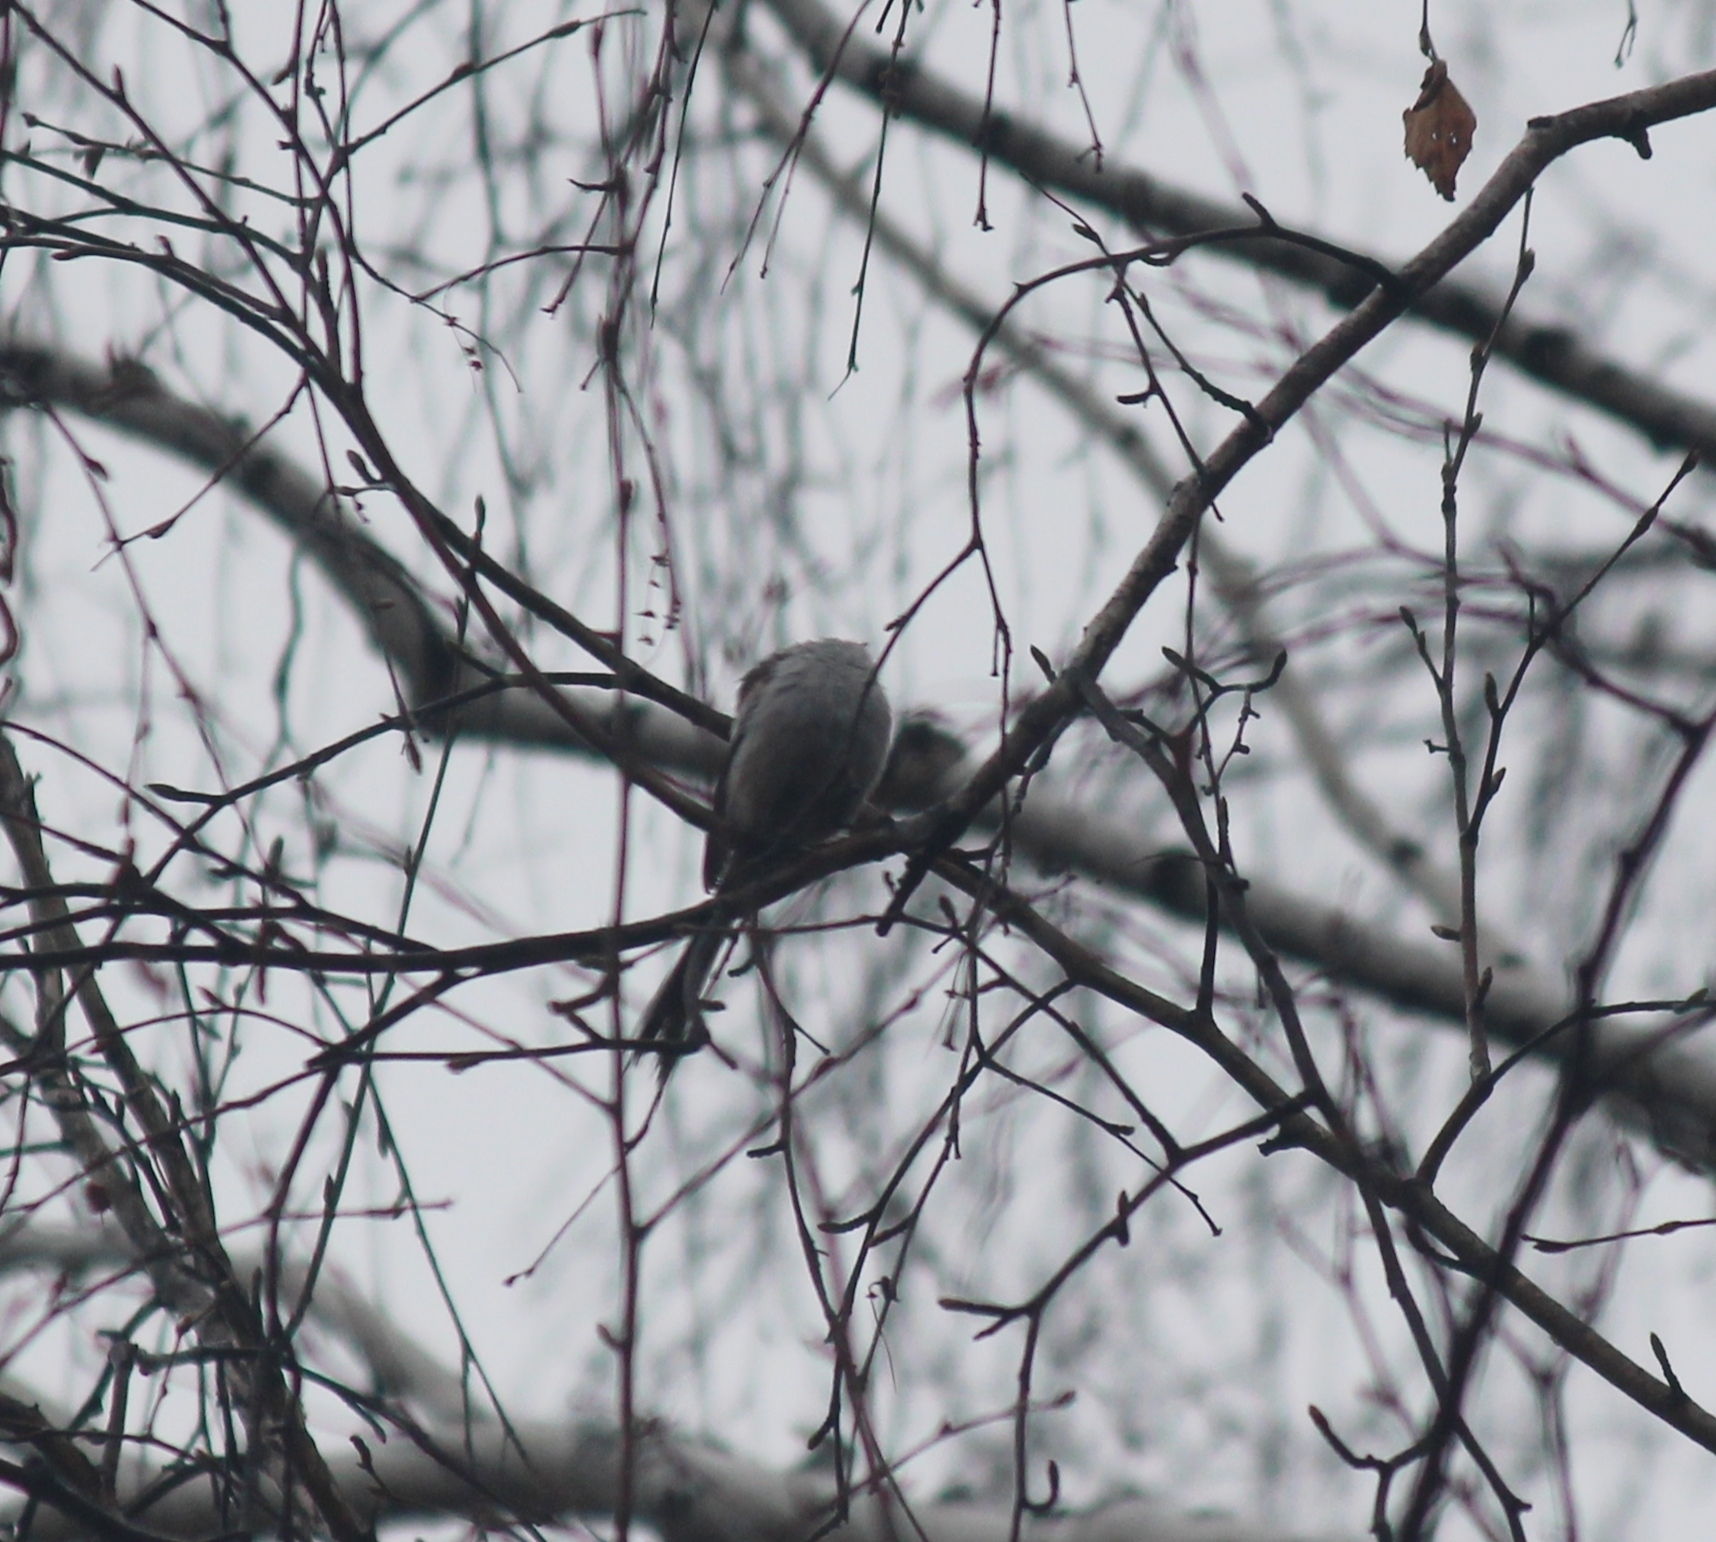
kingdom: Animalia
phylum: Chordata
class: Aves
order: Passeriformes
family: Aegithalidae
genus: Aegithalos
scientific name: Aegithalos caudatus
